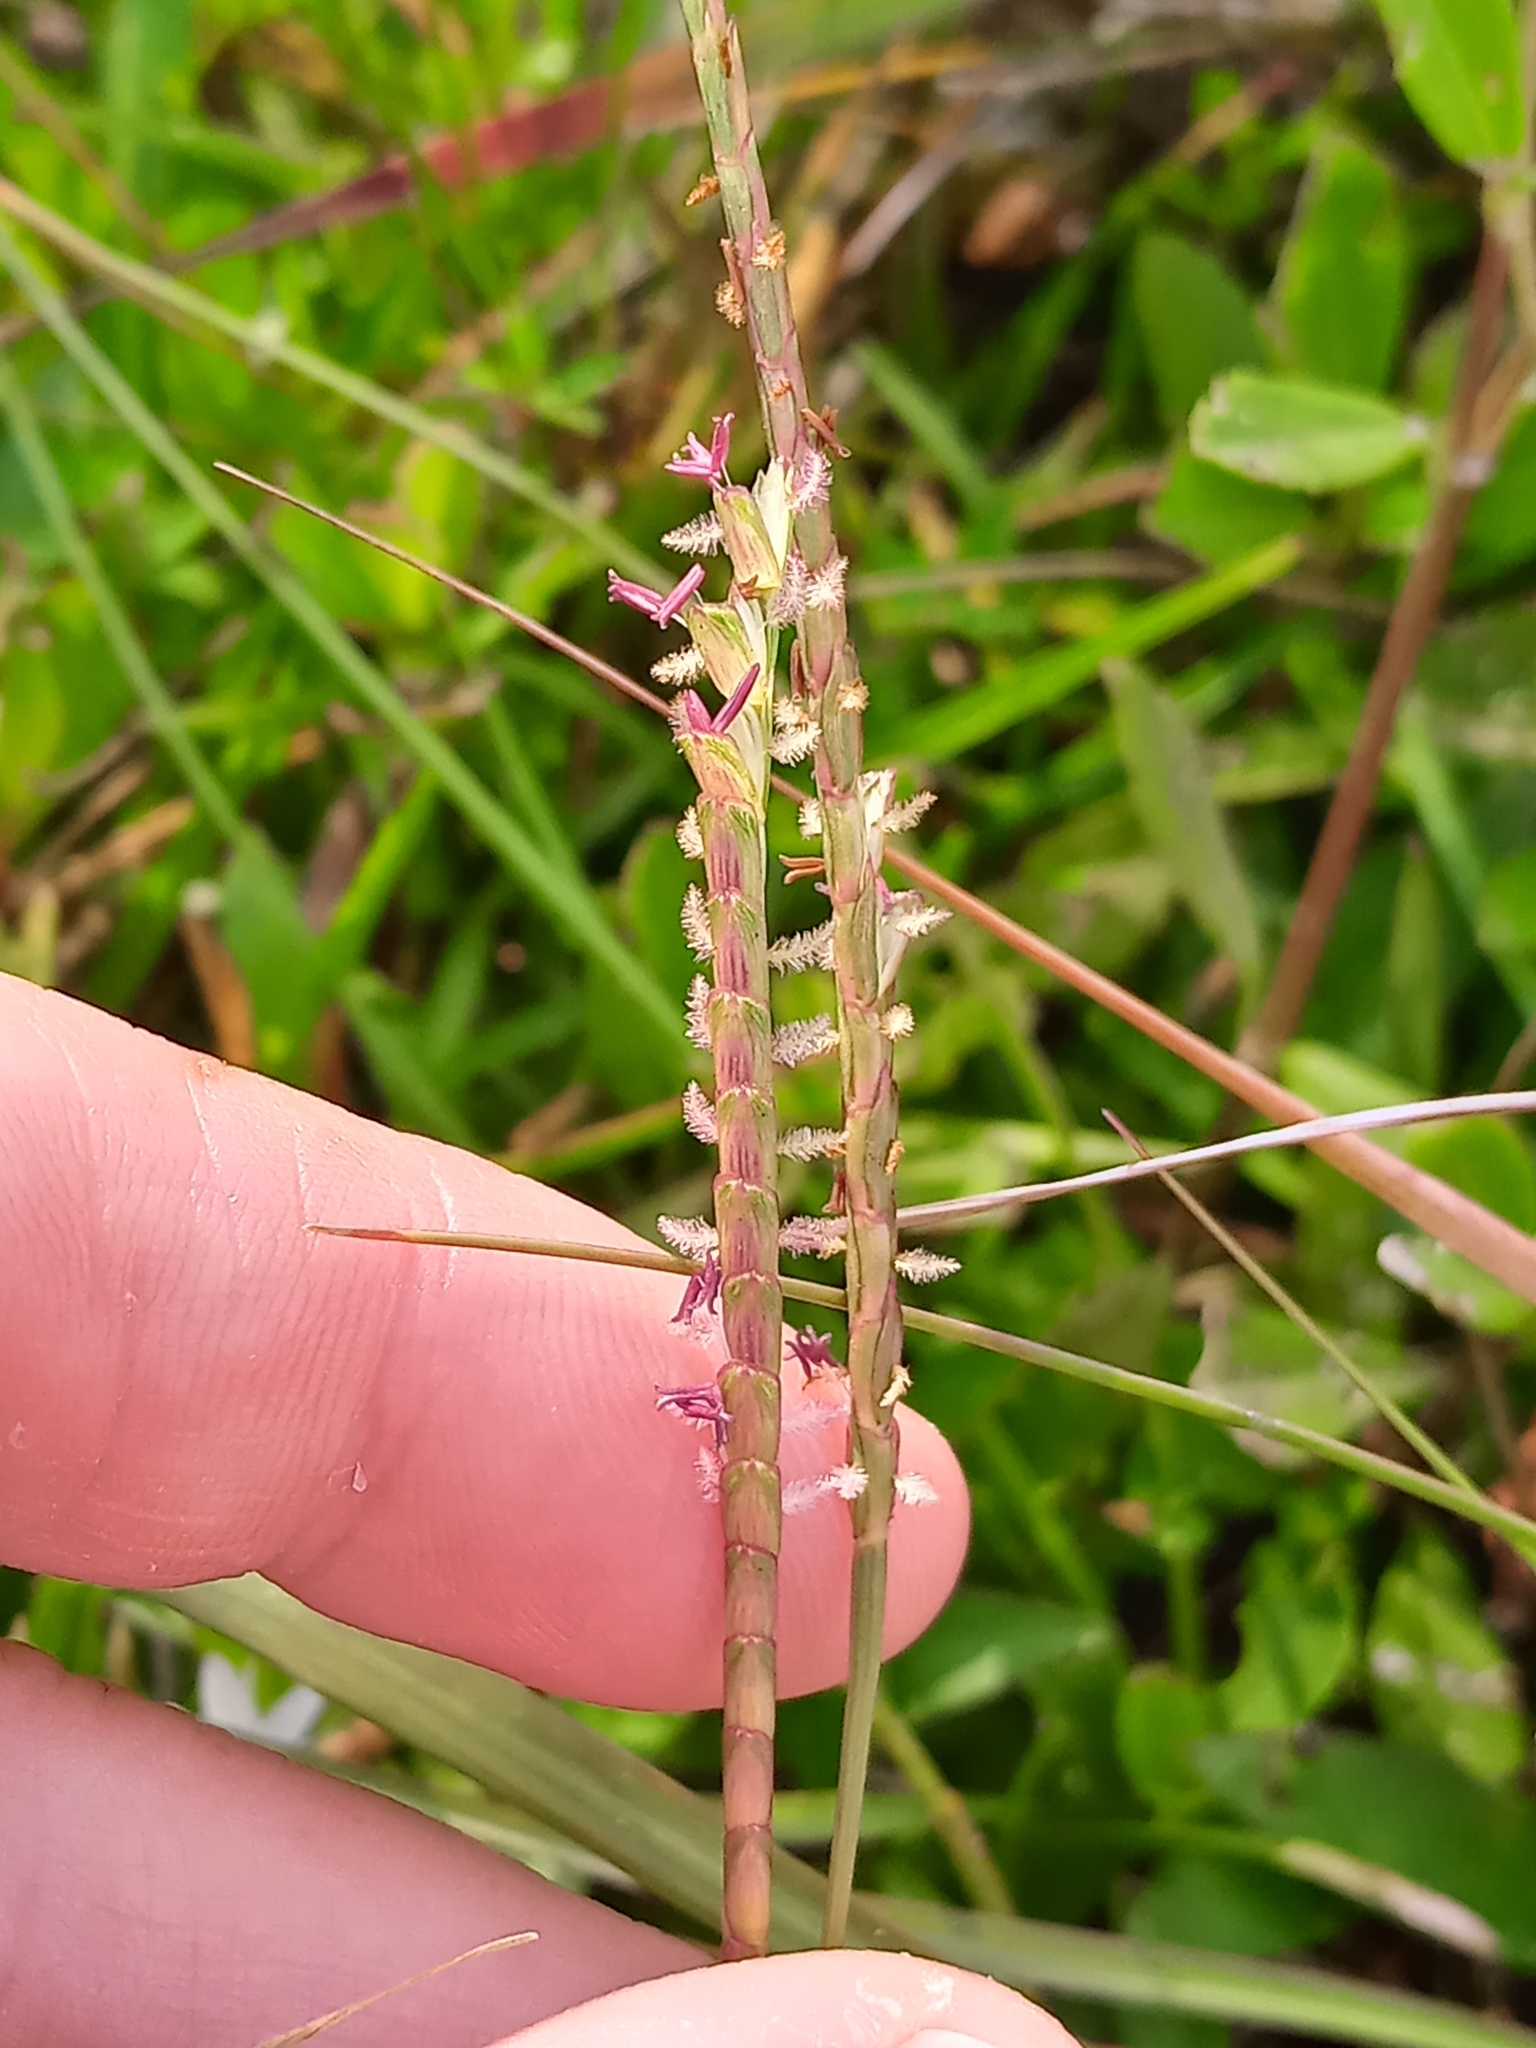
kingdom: Plantae
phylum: Tracheophyta
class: Liliopsida
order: Poales
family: Poaceae
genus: Eremochloa
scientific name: Eremochloa ophiuroides
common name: Centipede grass
